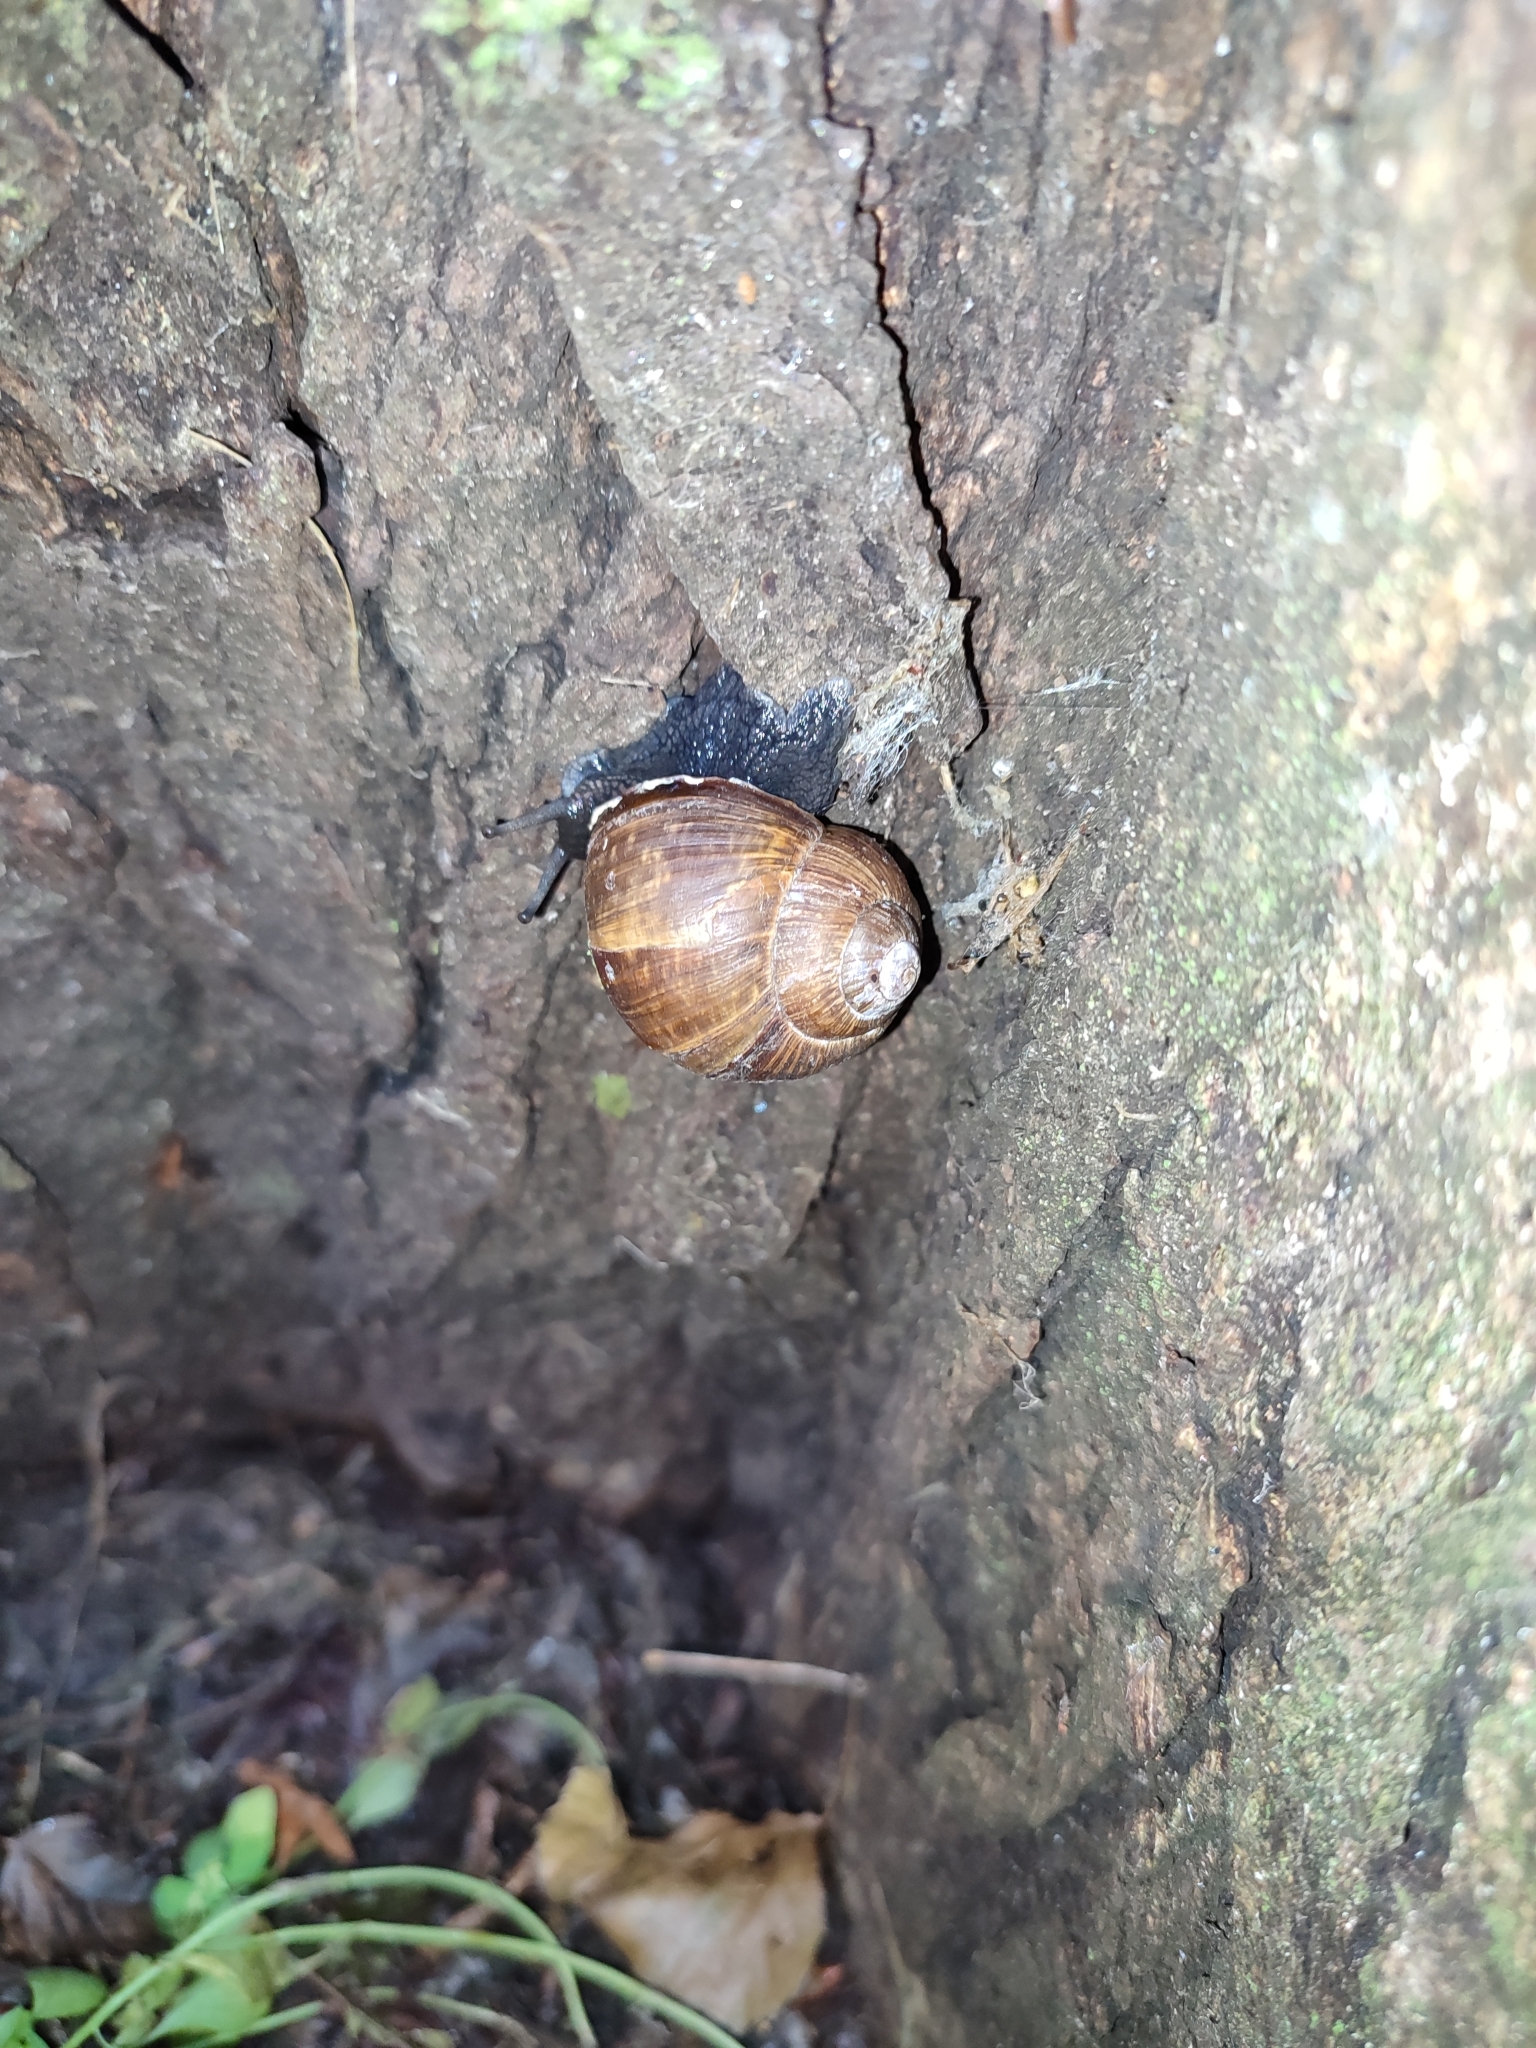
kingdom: Animalia
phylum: Mollusca
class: Gastropoda
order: Stylommatophora
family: Helicidae
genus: Helix
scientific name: Helix pomatia
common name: Roman snail
